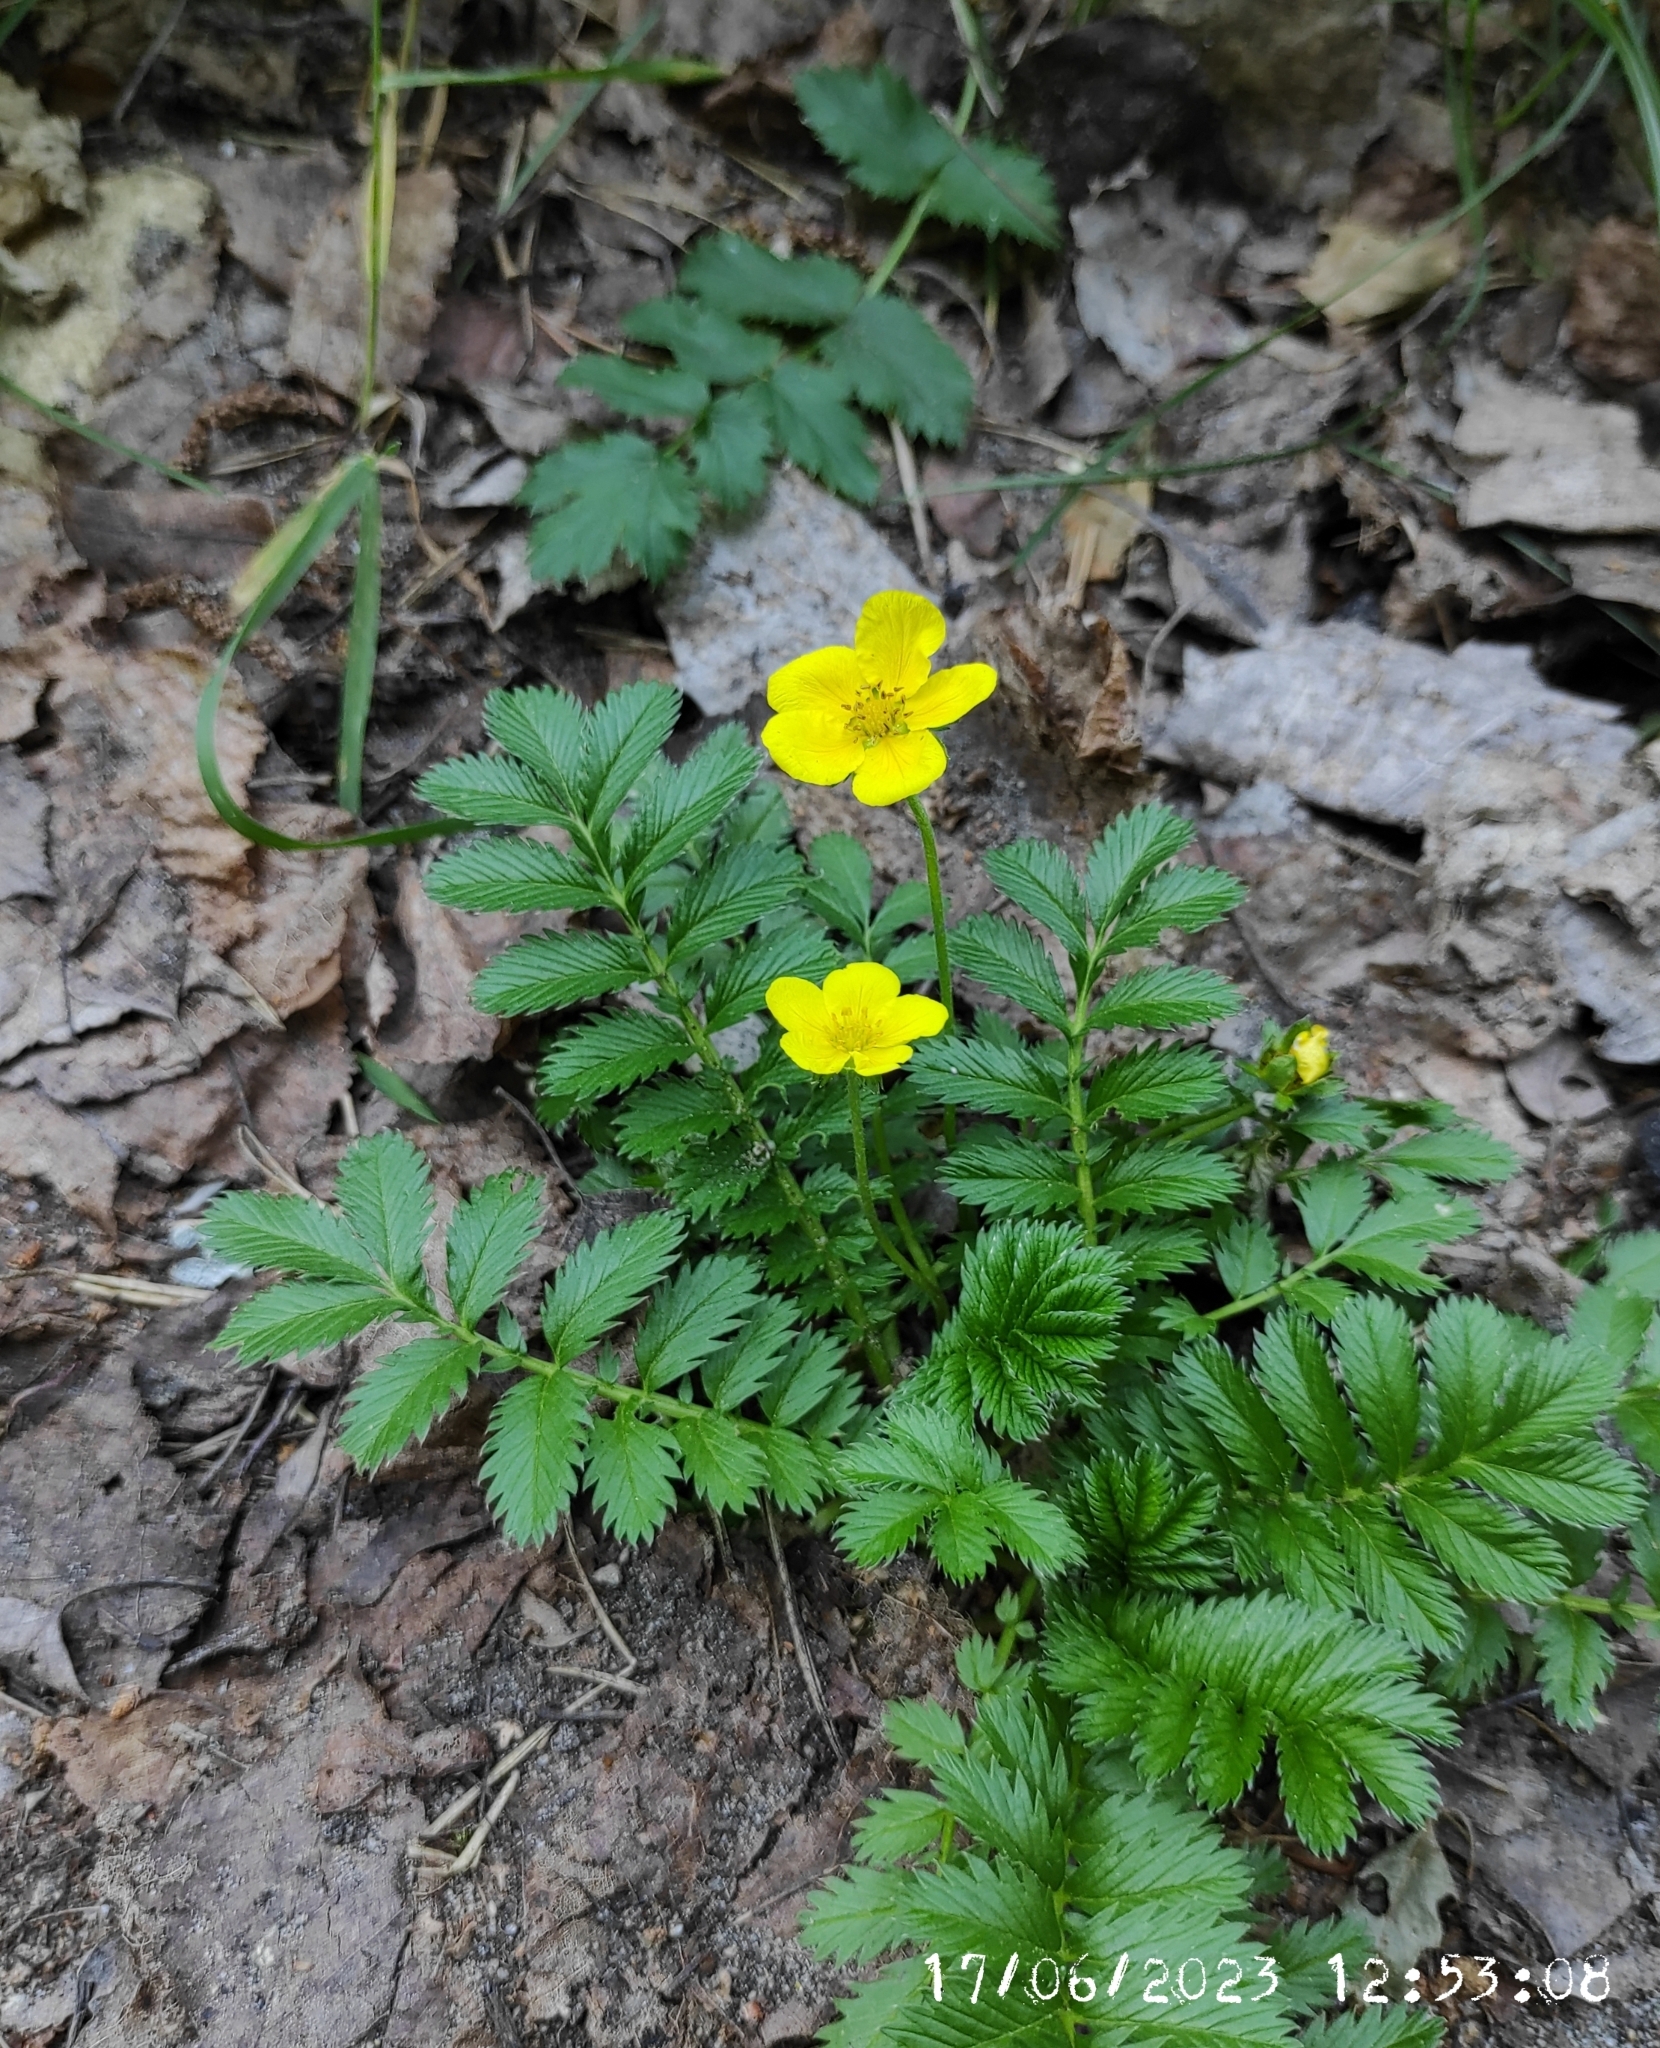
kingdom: Plantae
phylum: Tracheophyta
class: Magnoliopsida
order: Rosales
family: Rosaceae
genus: Argentina
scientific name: Argentina anserina
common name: Common silverweed
